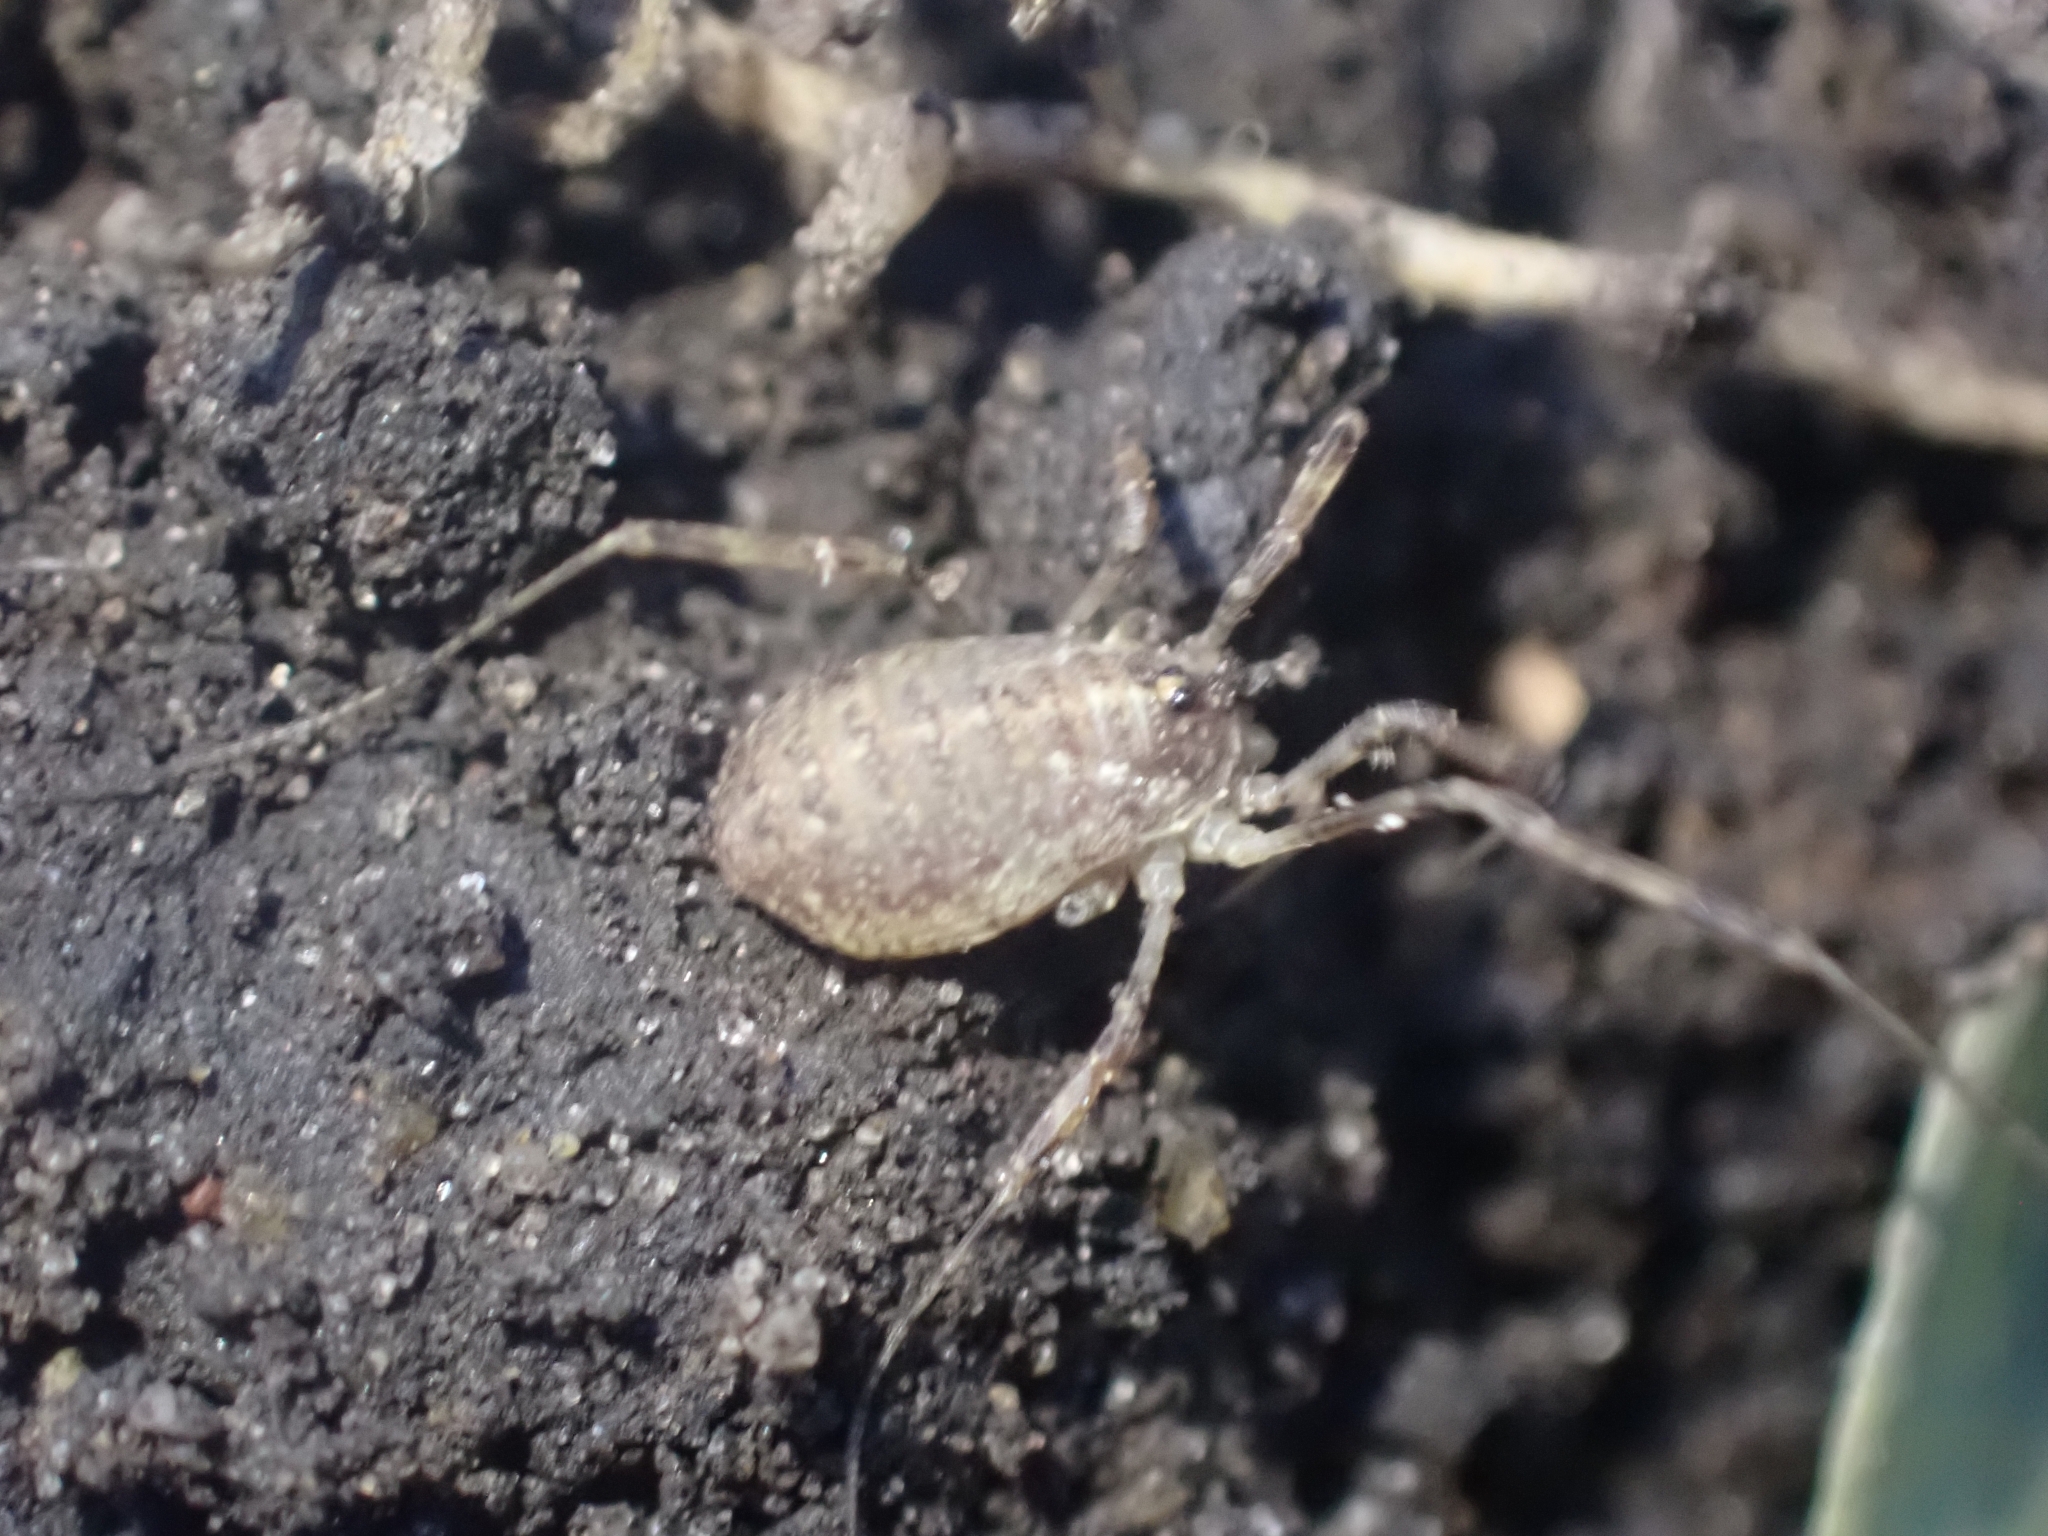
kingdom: Animalia
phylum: Arthropoda
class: Arachnida
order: Opiliones
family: Phalangiidae
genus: Paroligolophus
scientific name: Paroligolophus agrestis
